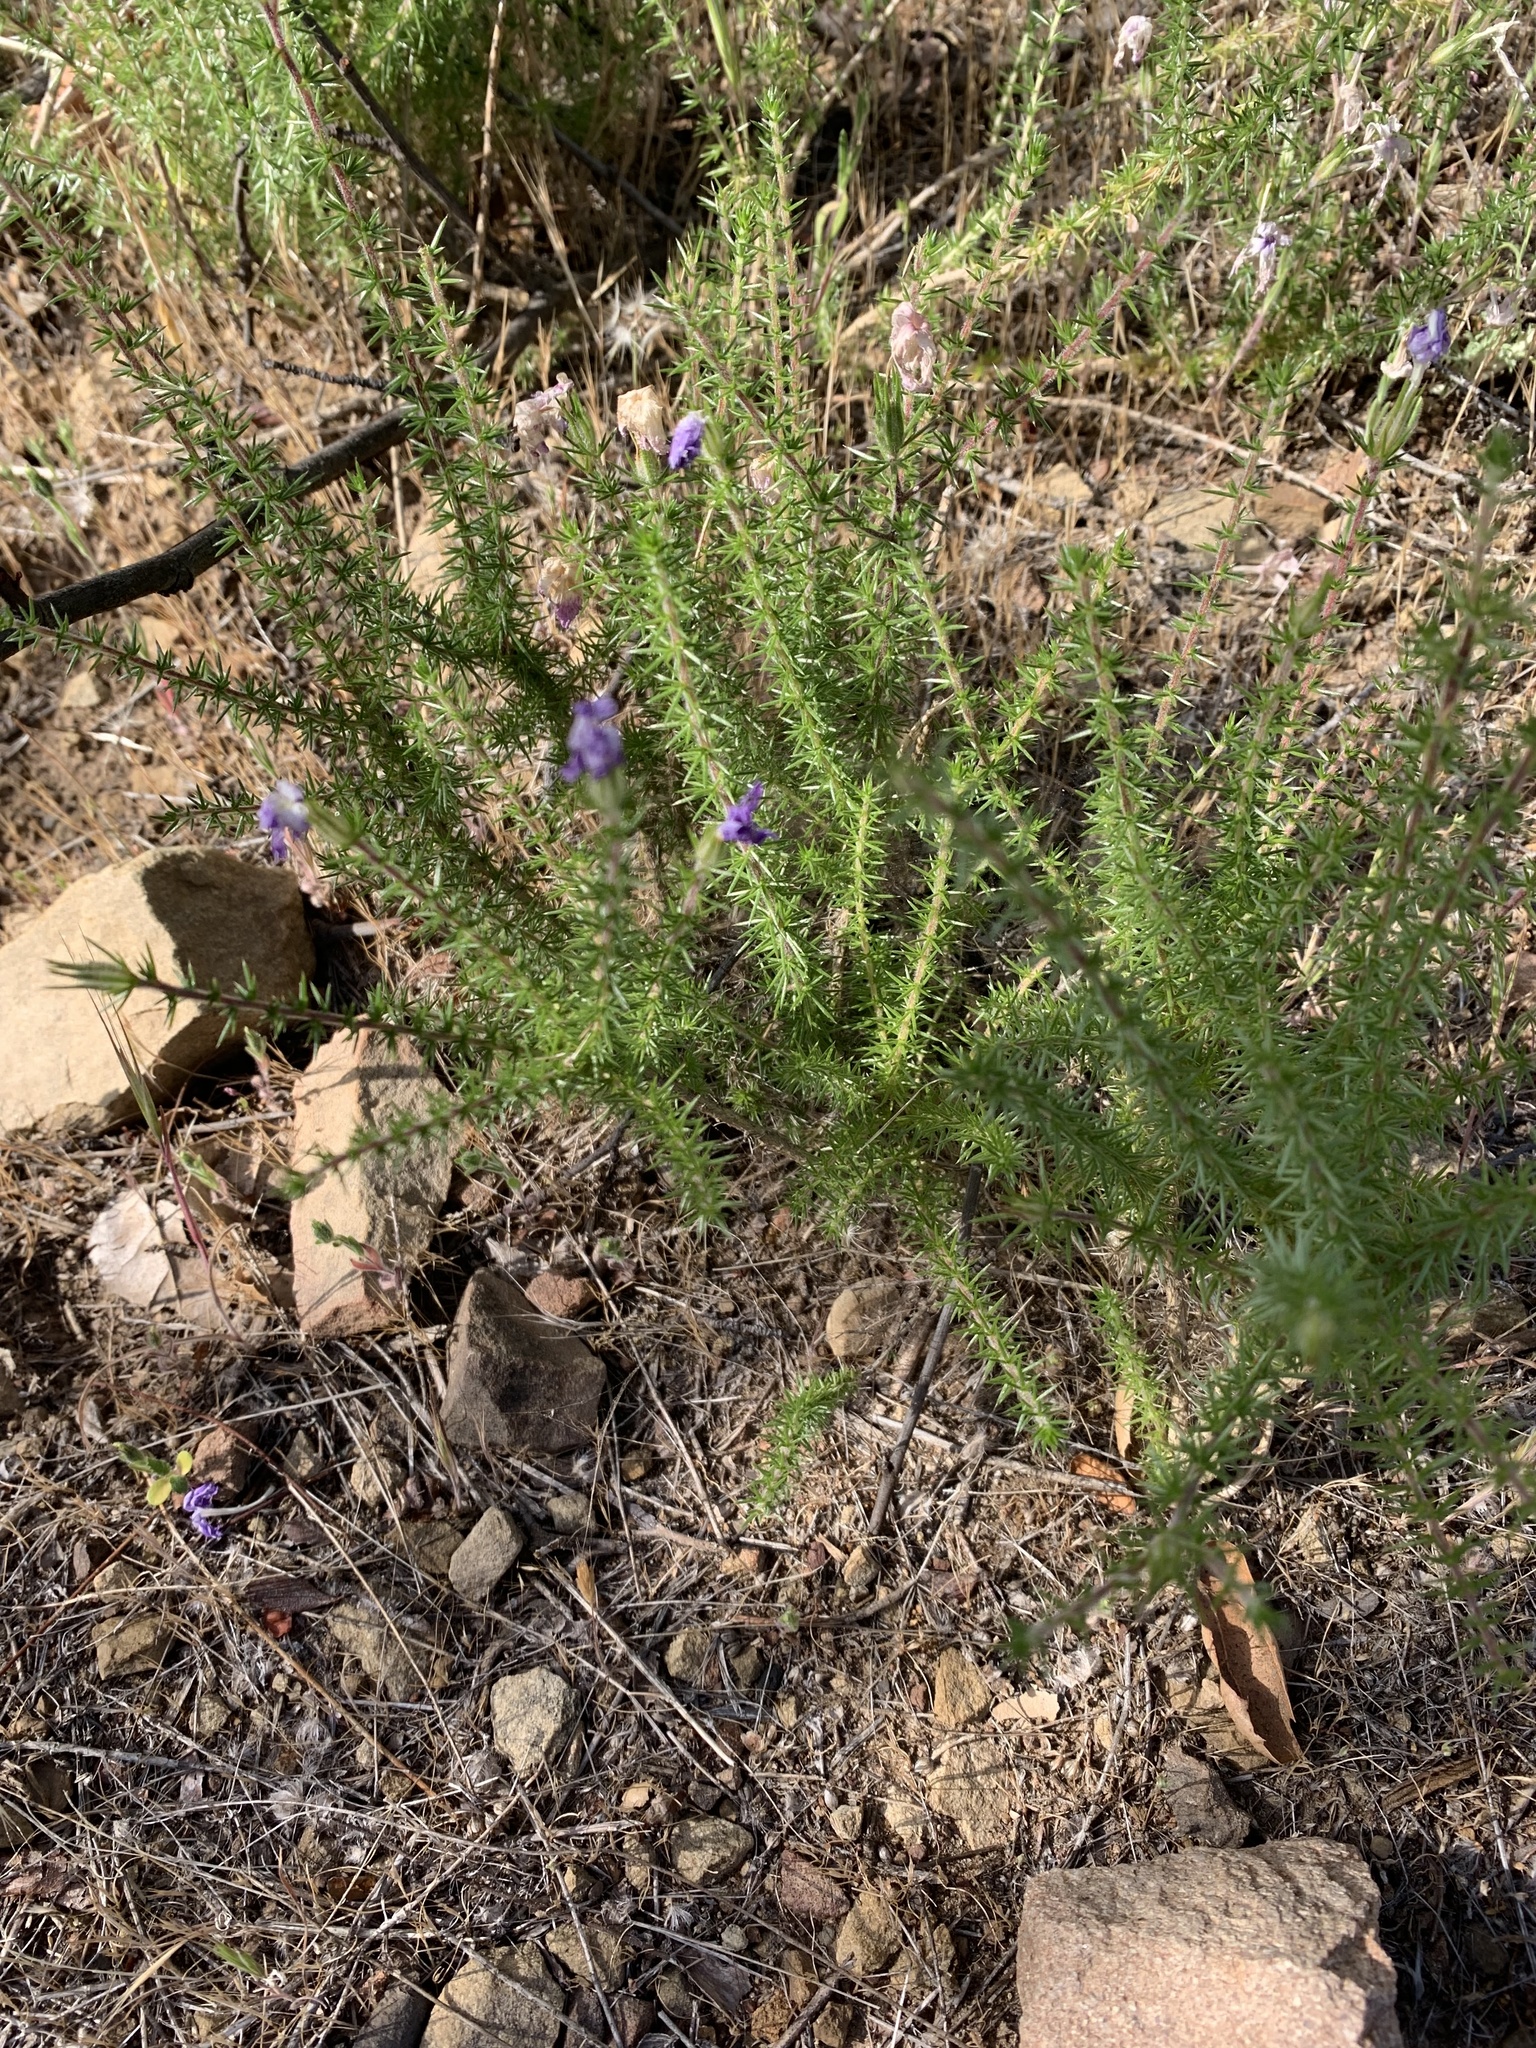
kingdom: Plantae
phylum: Tracheophyta
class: Magnoliopsida
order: Ericales
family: Polemoniaceae
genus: Linanthus
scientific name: Linanthus californicus
